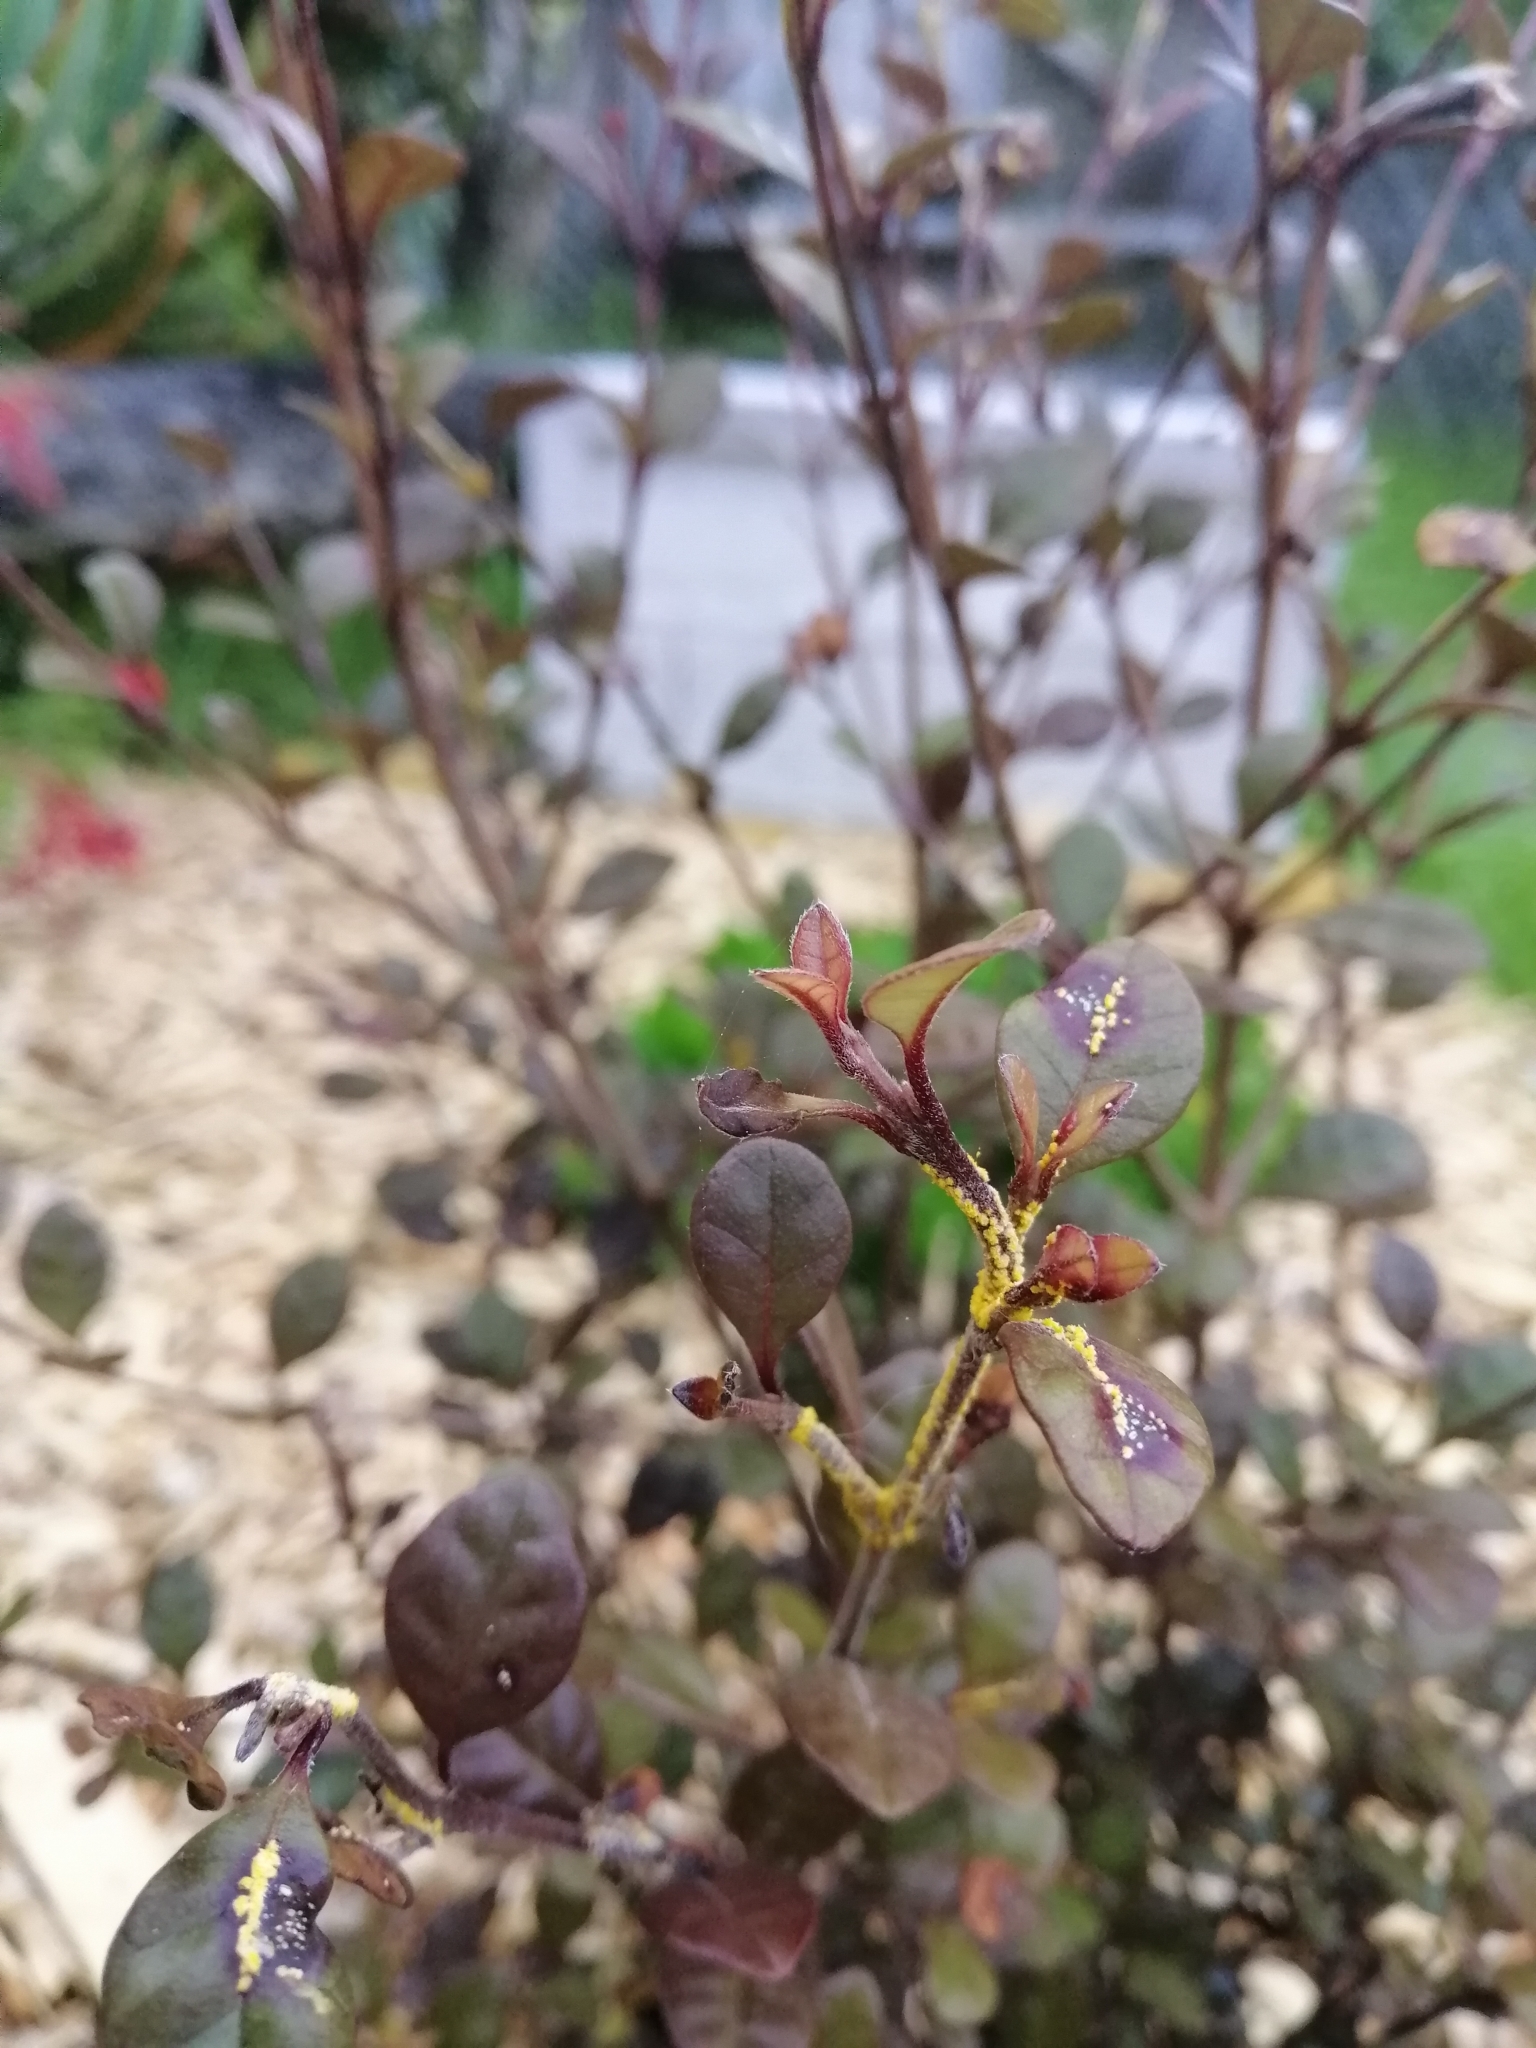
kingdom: Fungi
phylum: Basidiomycota
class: Pucciniomycetes
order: Pucciniales
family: Sphaerophragmiaceae
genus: Austropuccinia
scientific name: Austropuccinia psidii
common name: Myrtle rust
